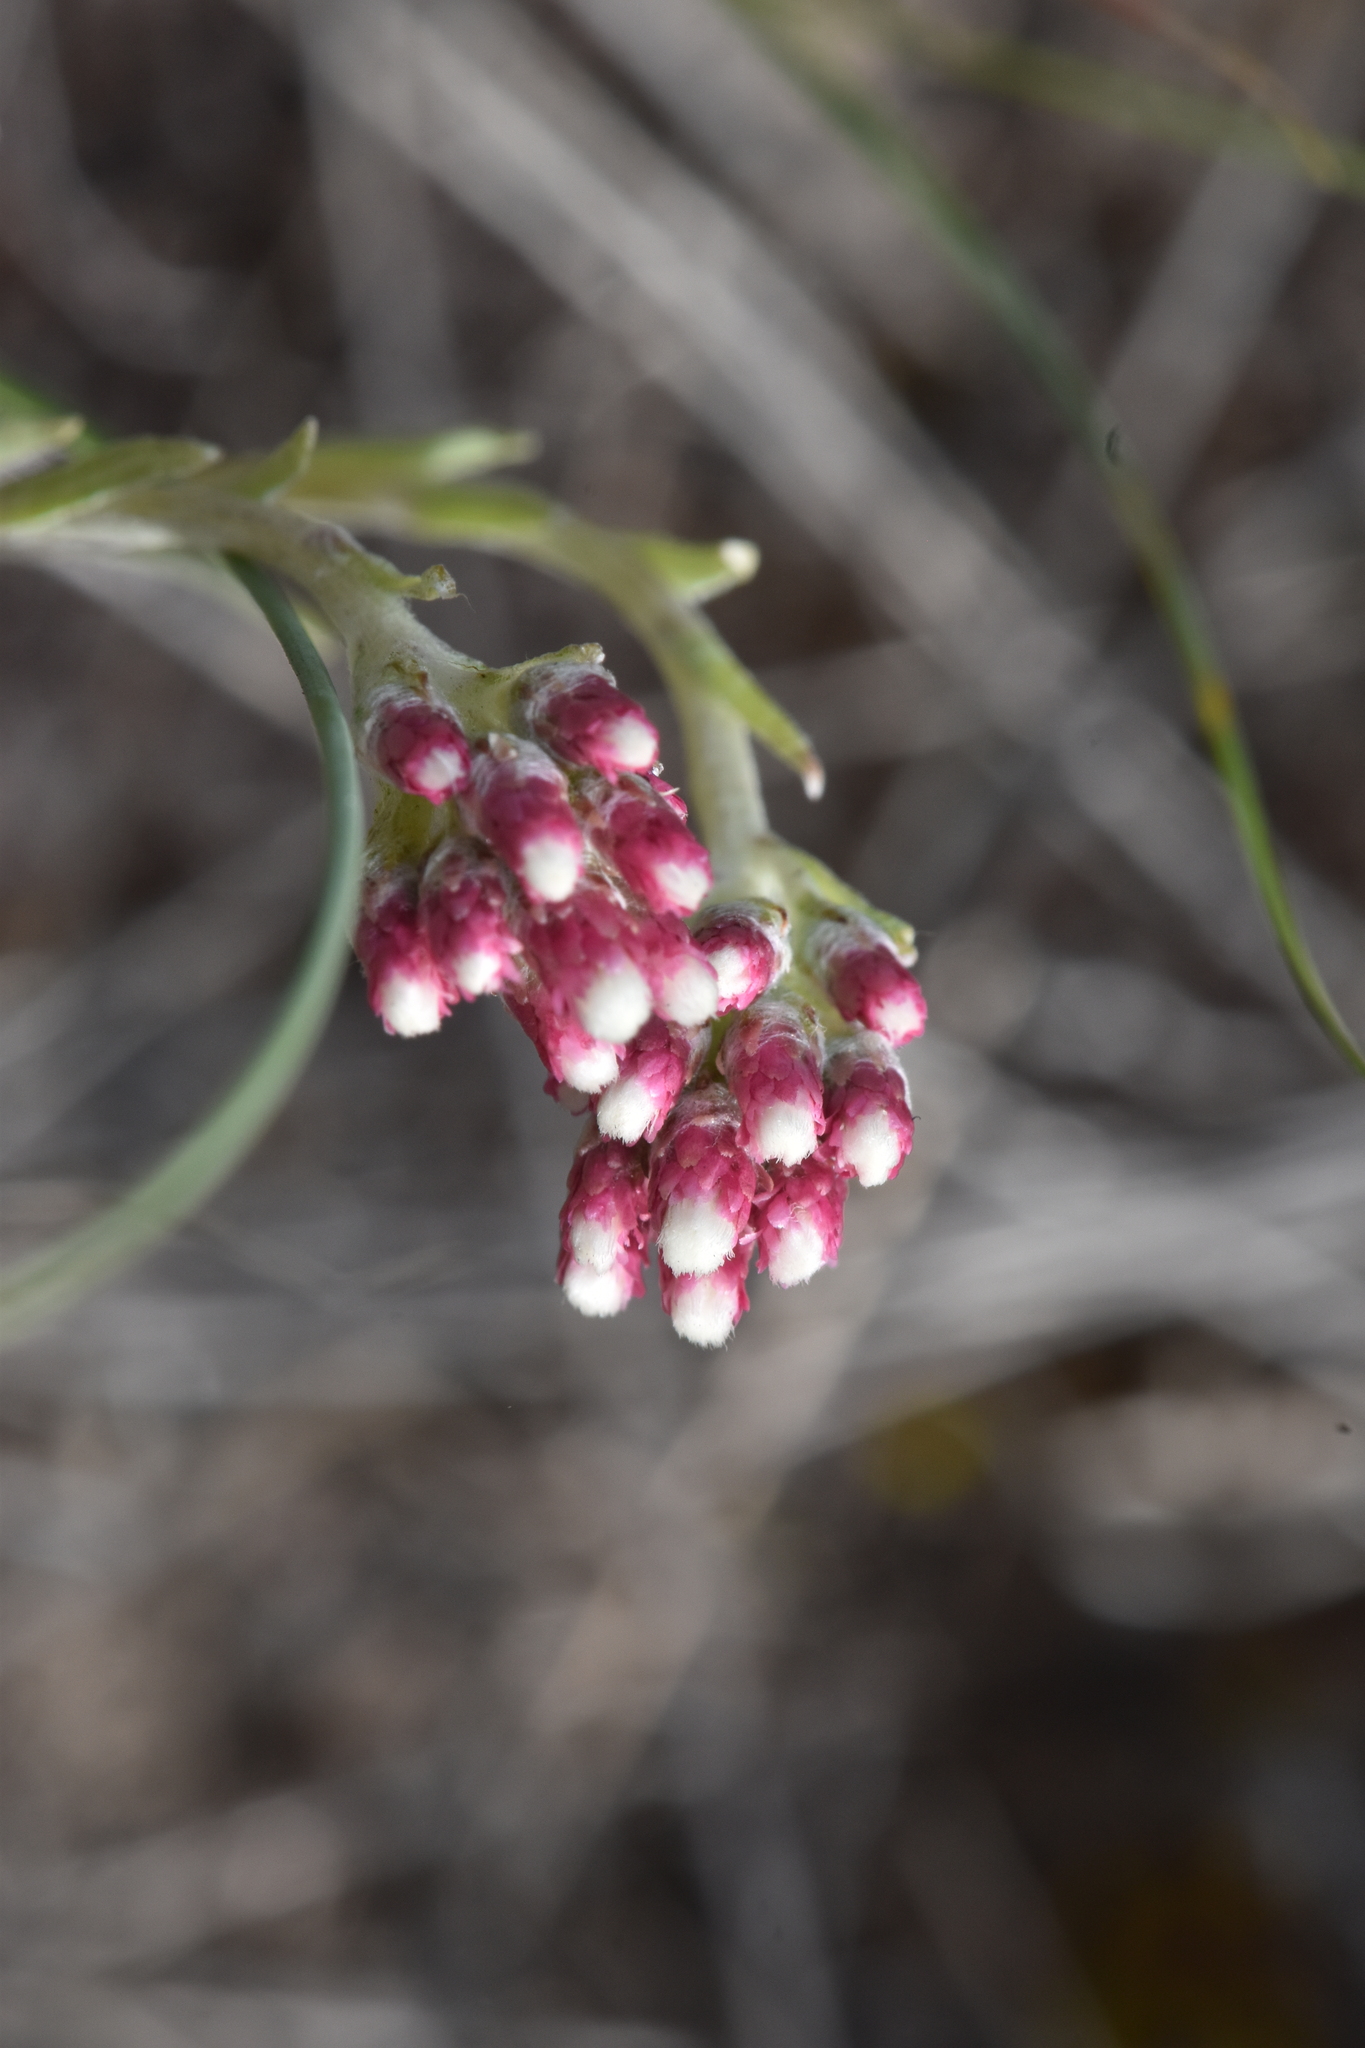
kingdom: Plantae
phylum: Tracheophyta
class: Magnoliopsida
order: Asterales
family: Asteraceae
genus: Antennaria
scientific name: Antennaria rosea
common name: Rosy pussytoes
